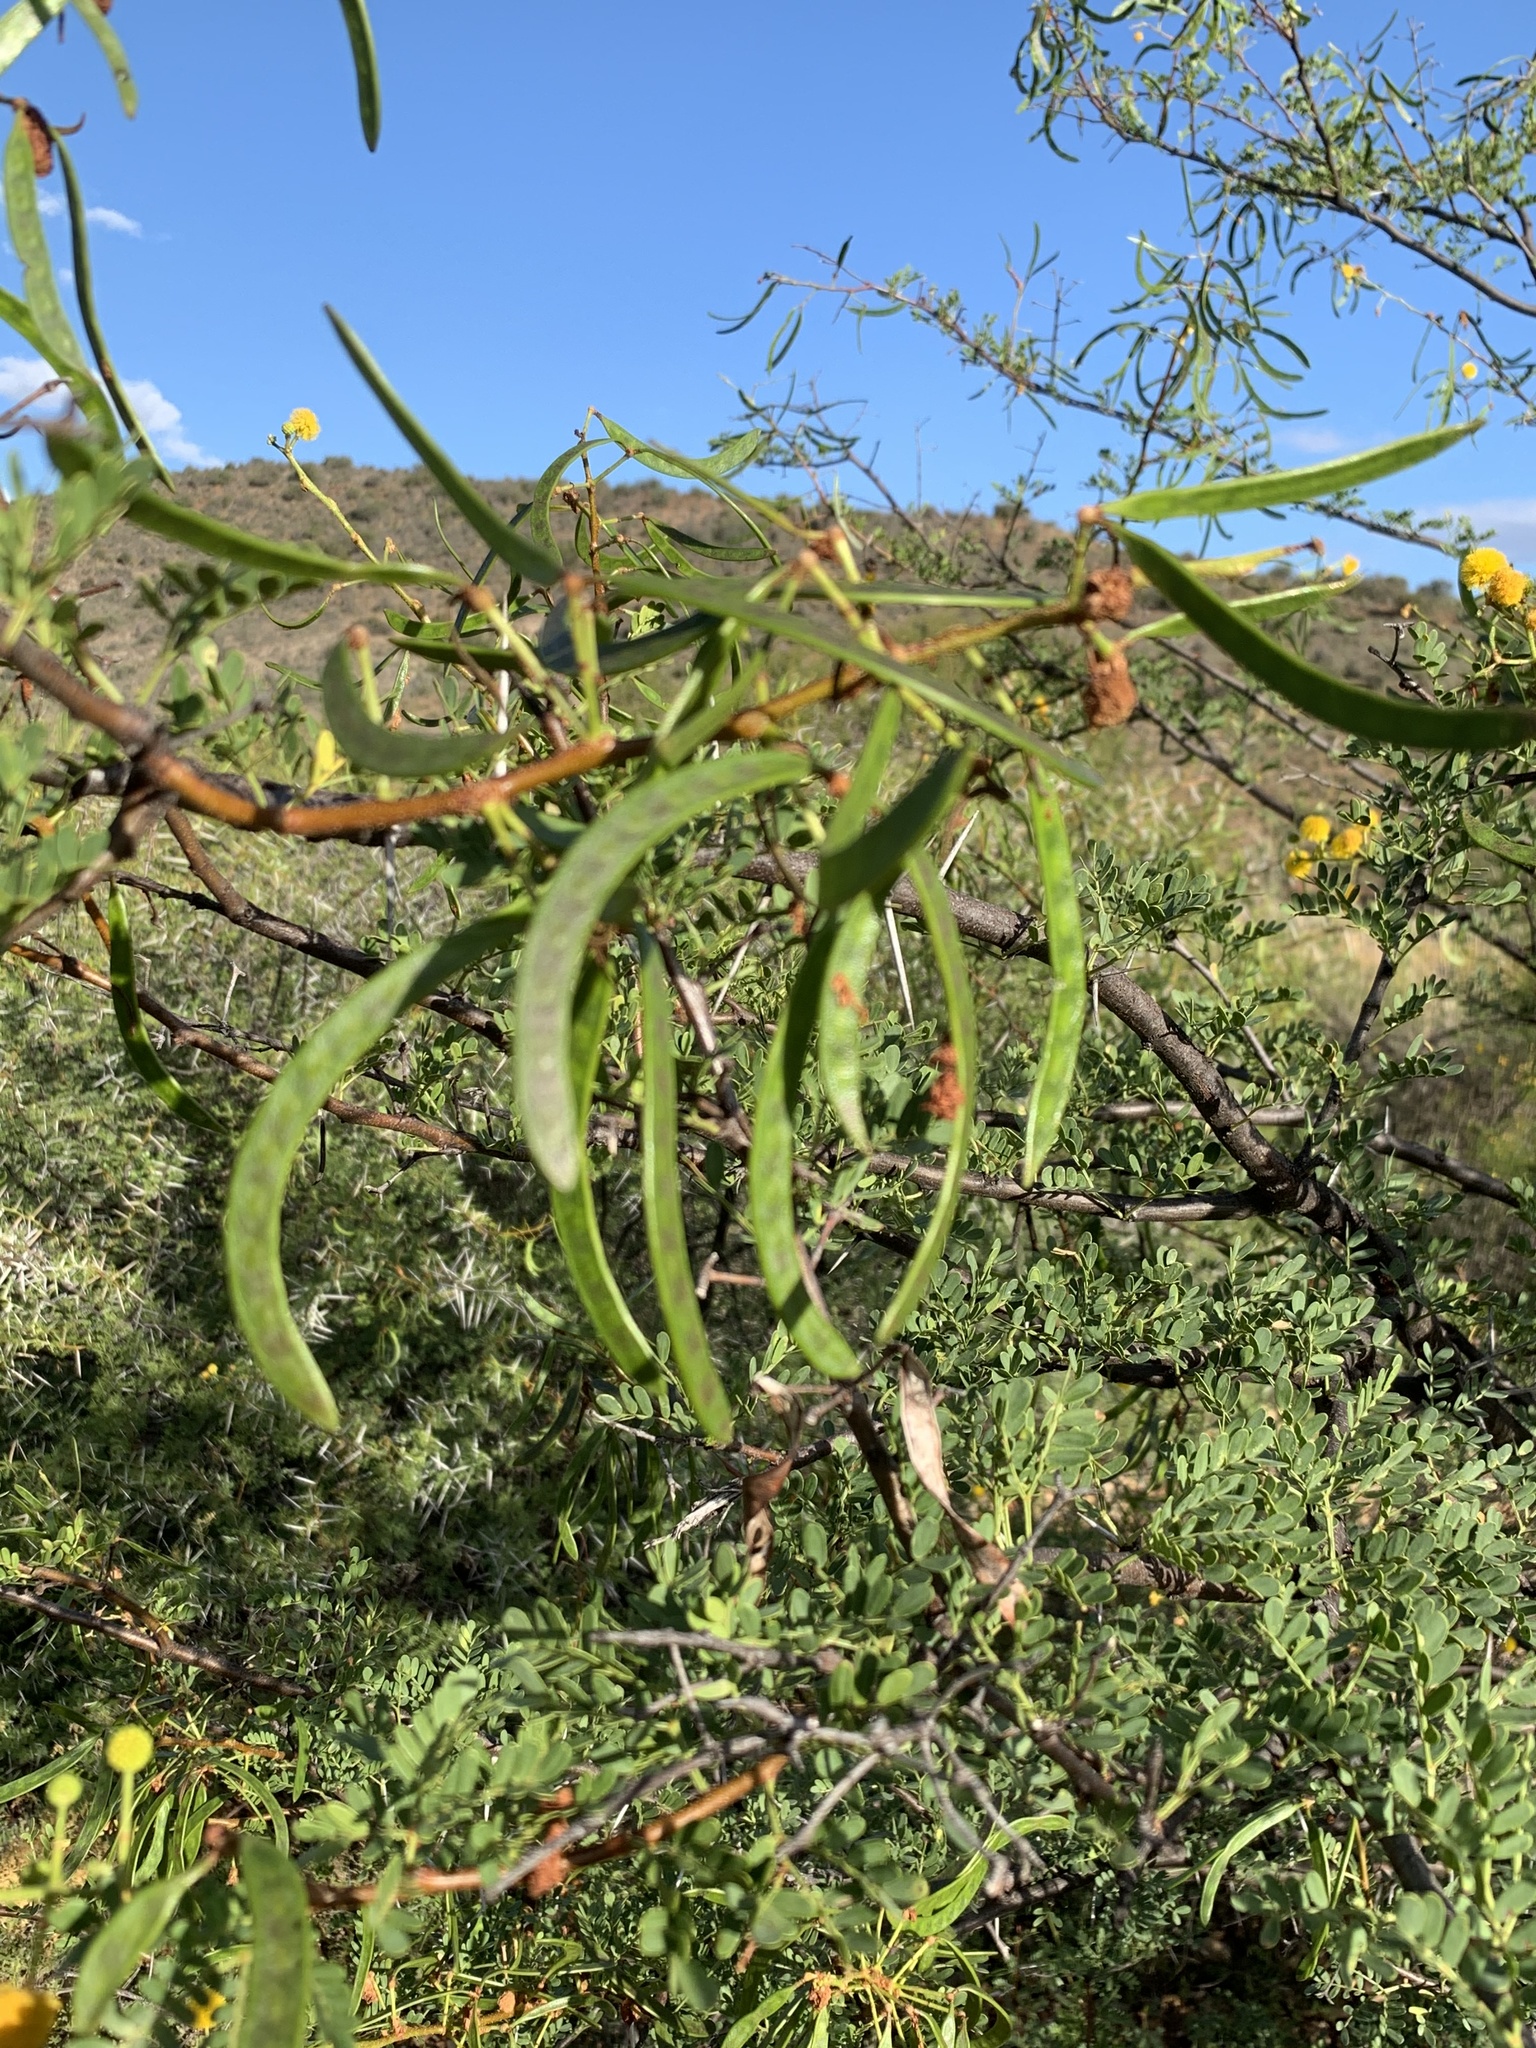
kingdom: Plantae
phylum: Tracheophyta
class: Magnoliopsida
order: Fabales
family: Fabaceae
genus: Vachellia
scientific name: Vachellia karroo
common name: Sweet thorn
